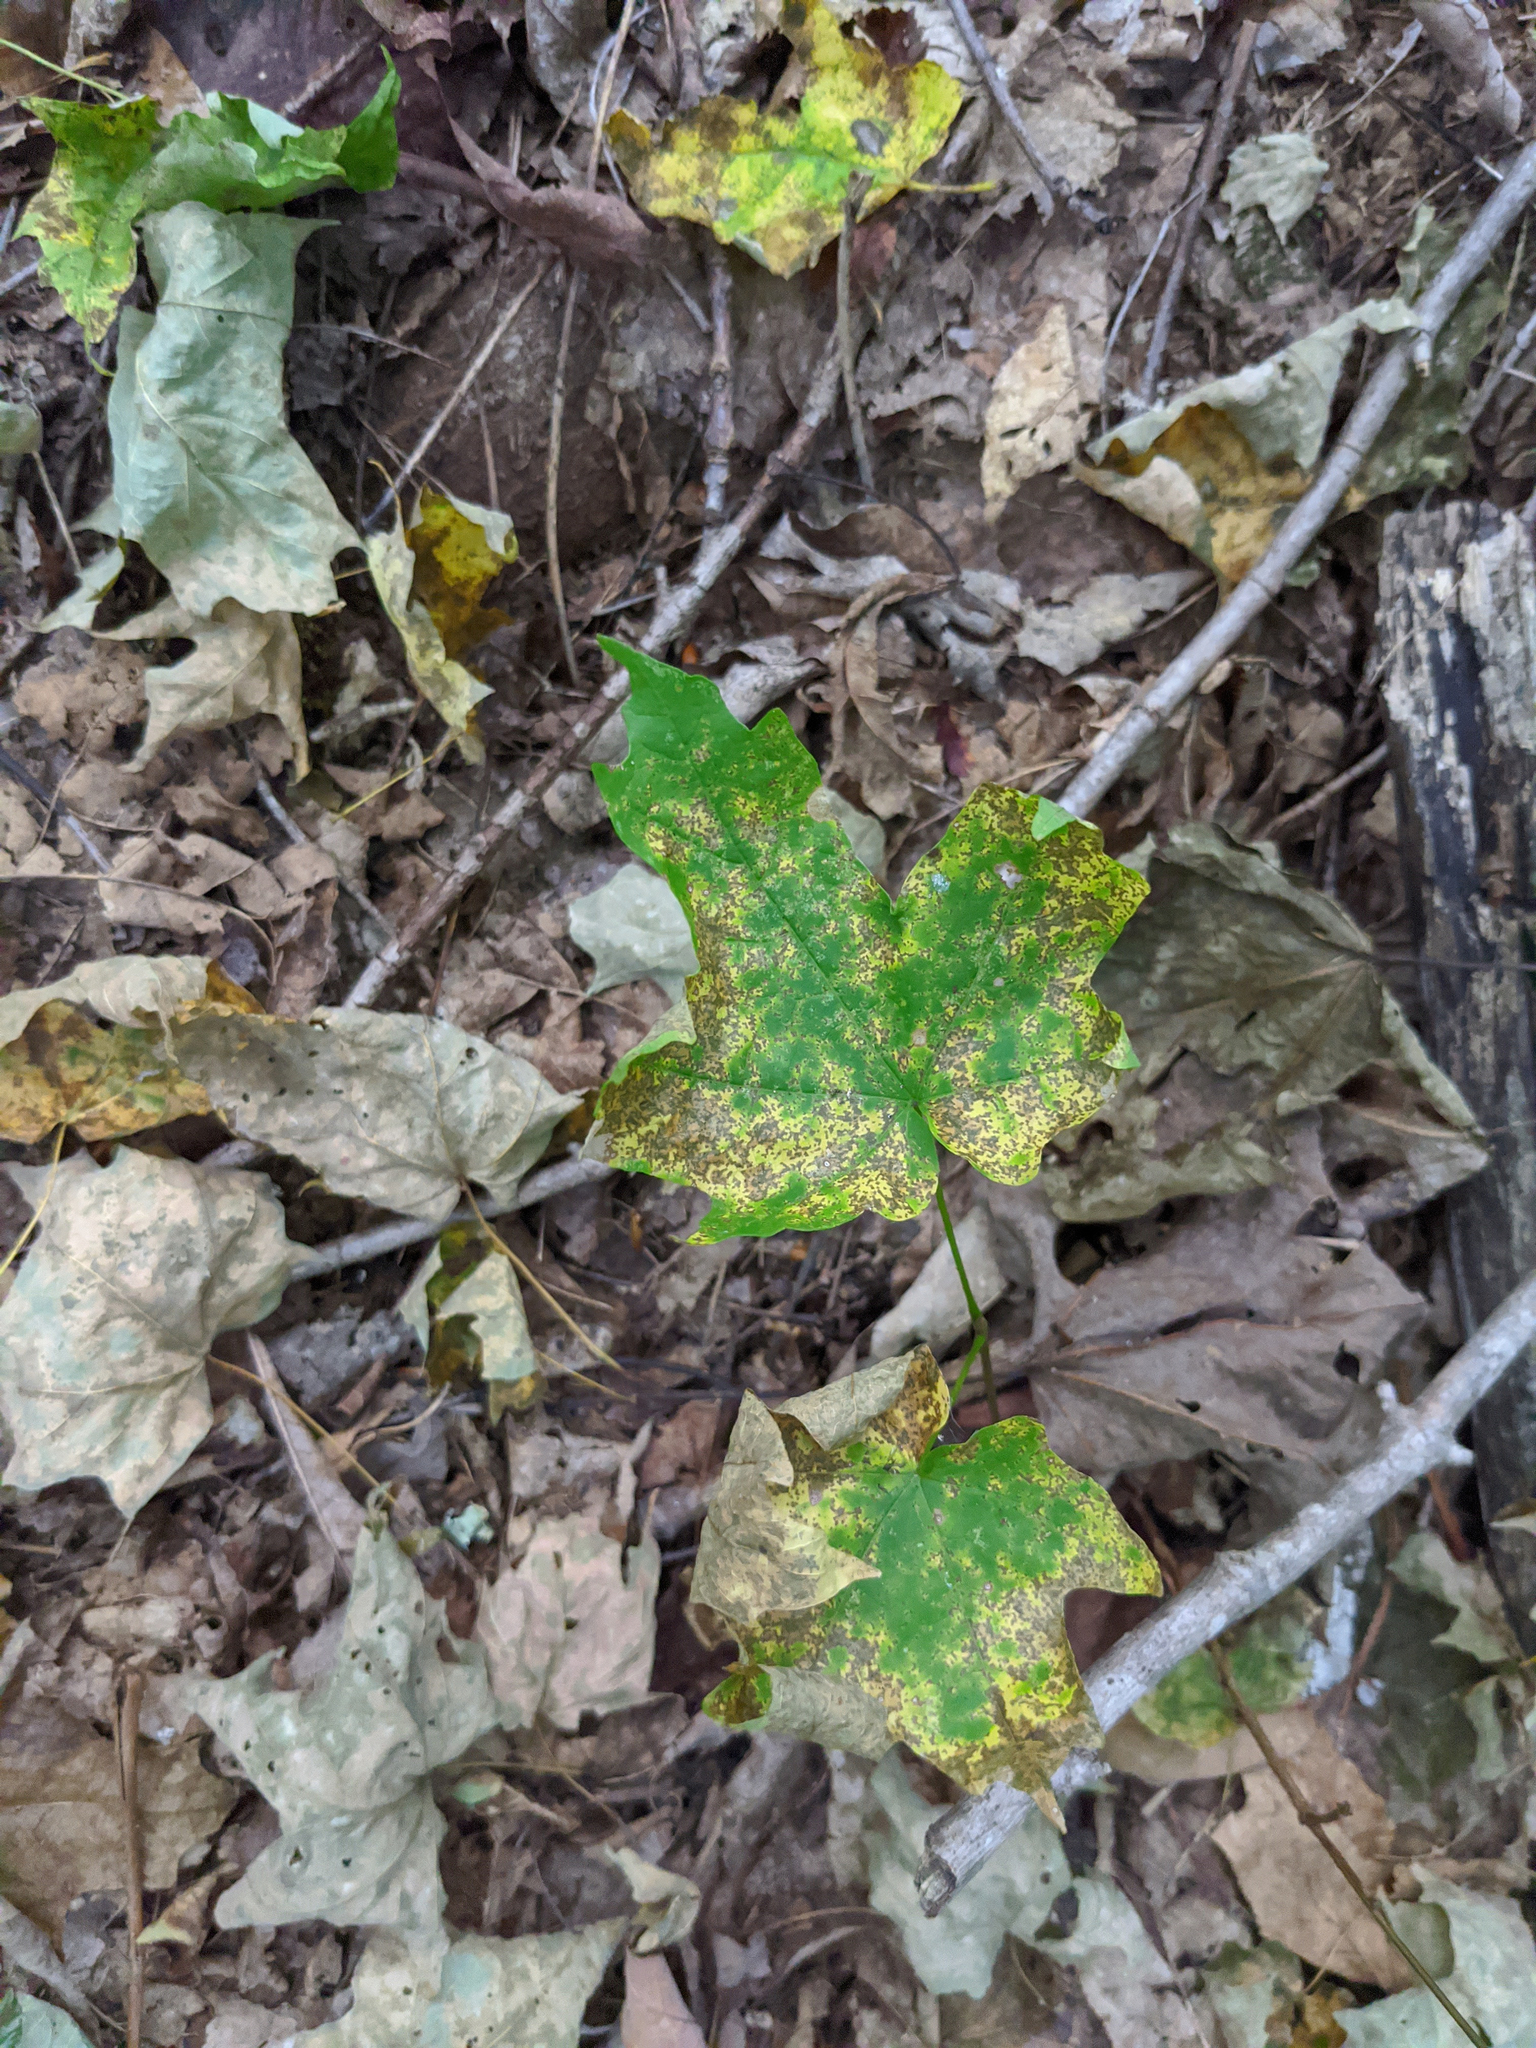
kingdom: Plantae
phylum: Tracheophyta
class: Magnoliopsida
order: Sapindales
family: Sapindaceae
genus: Acer
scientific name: Acer saccharum
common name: Sugar maple
